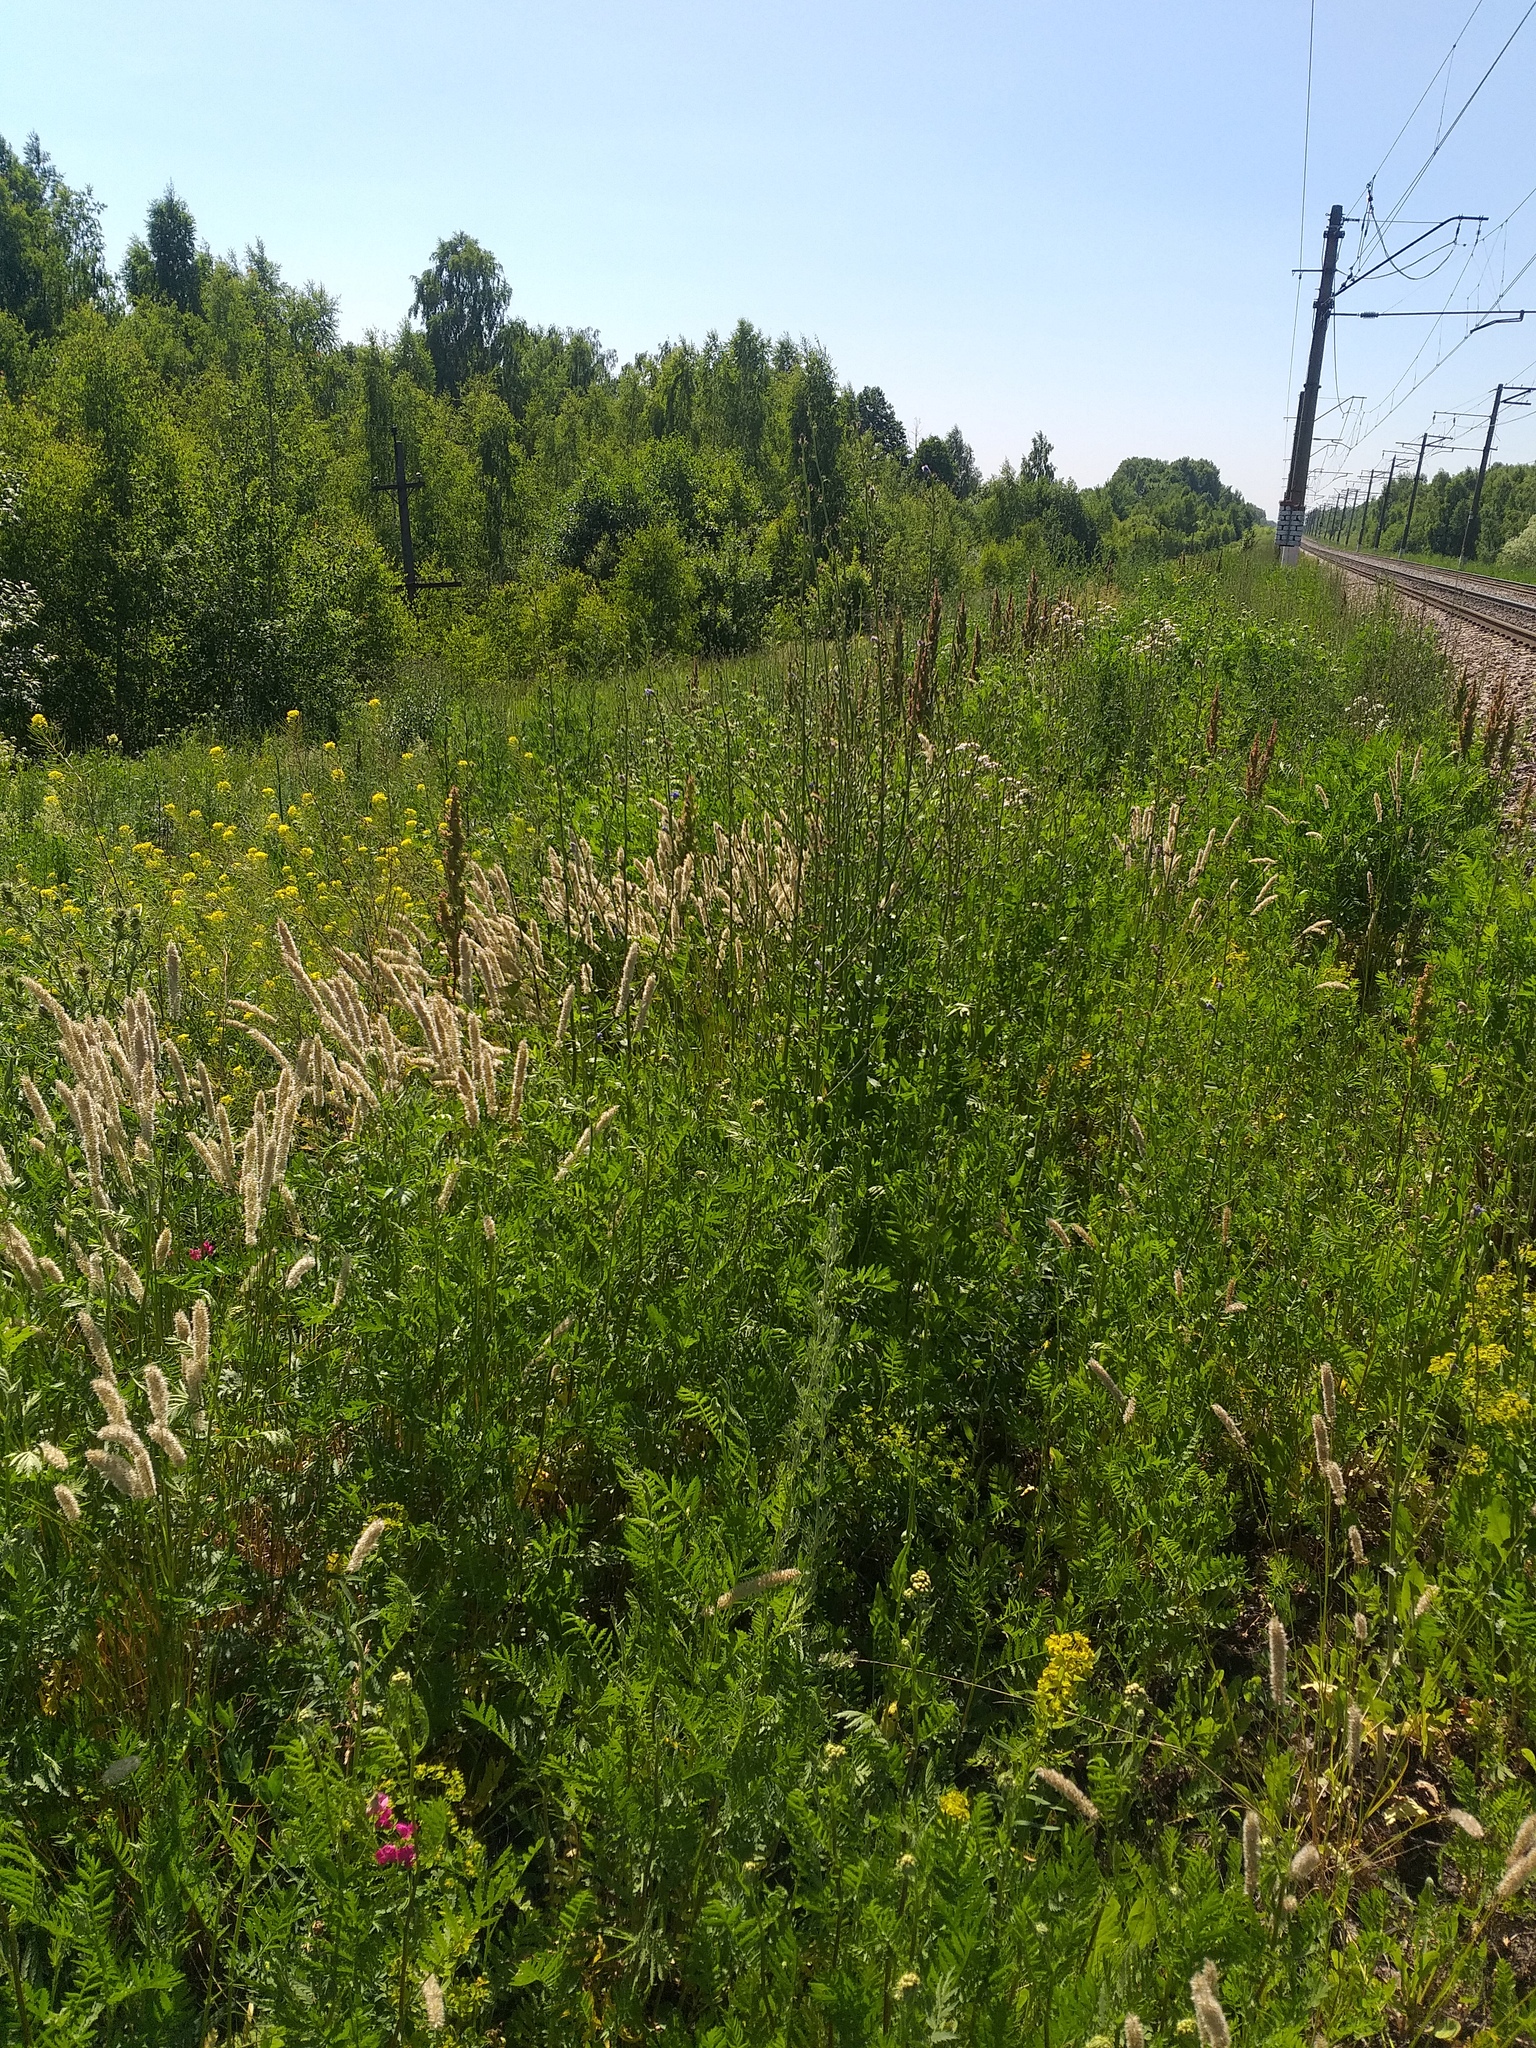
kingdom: Plantae
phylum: Tracheophyta
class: Liliopsida
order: Poales
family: Poaceae
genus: Melica
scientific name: Melica transsilvanica
